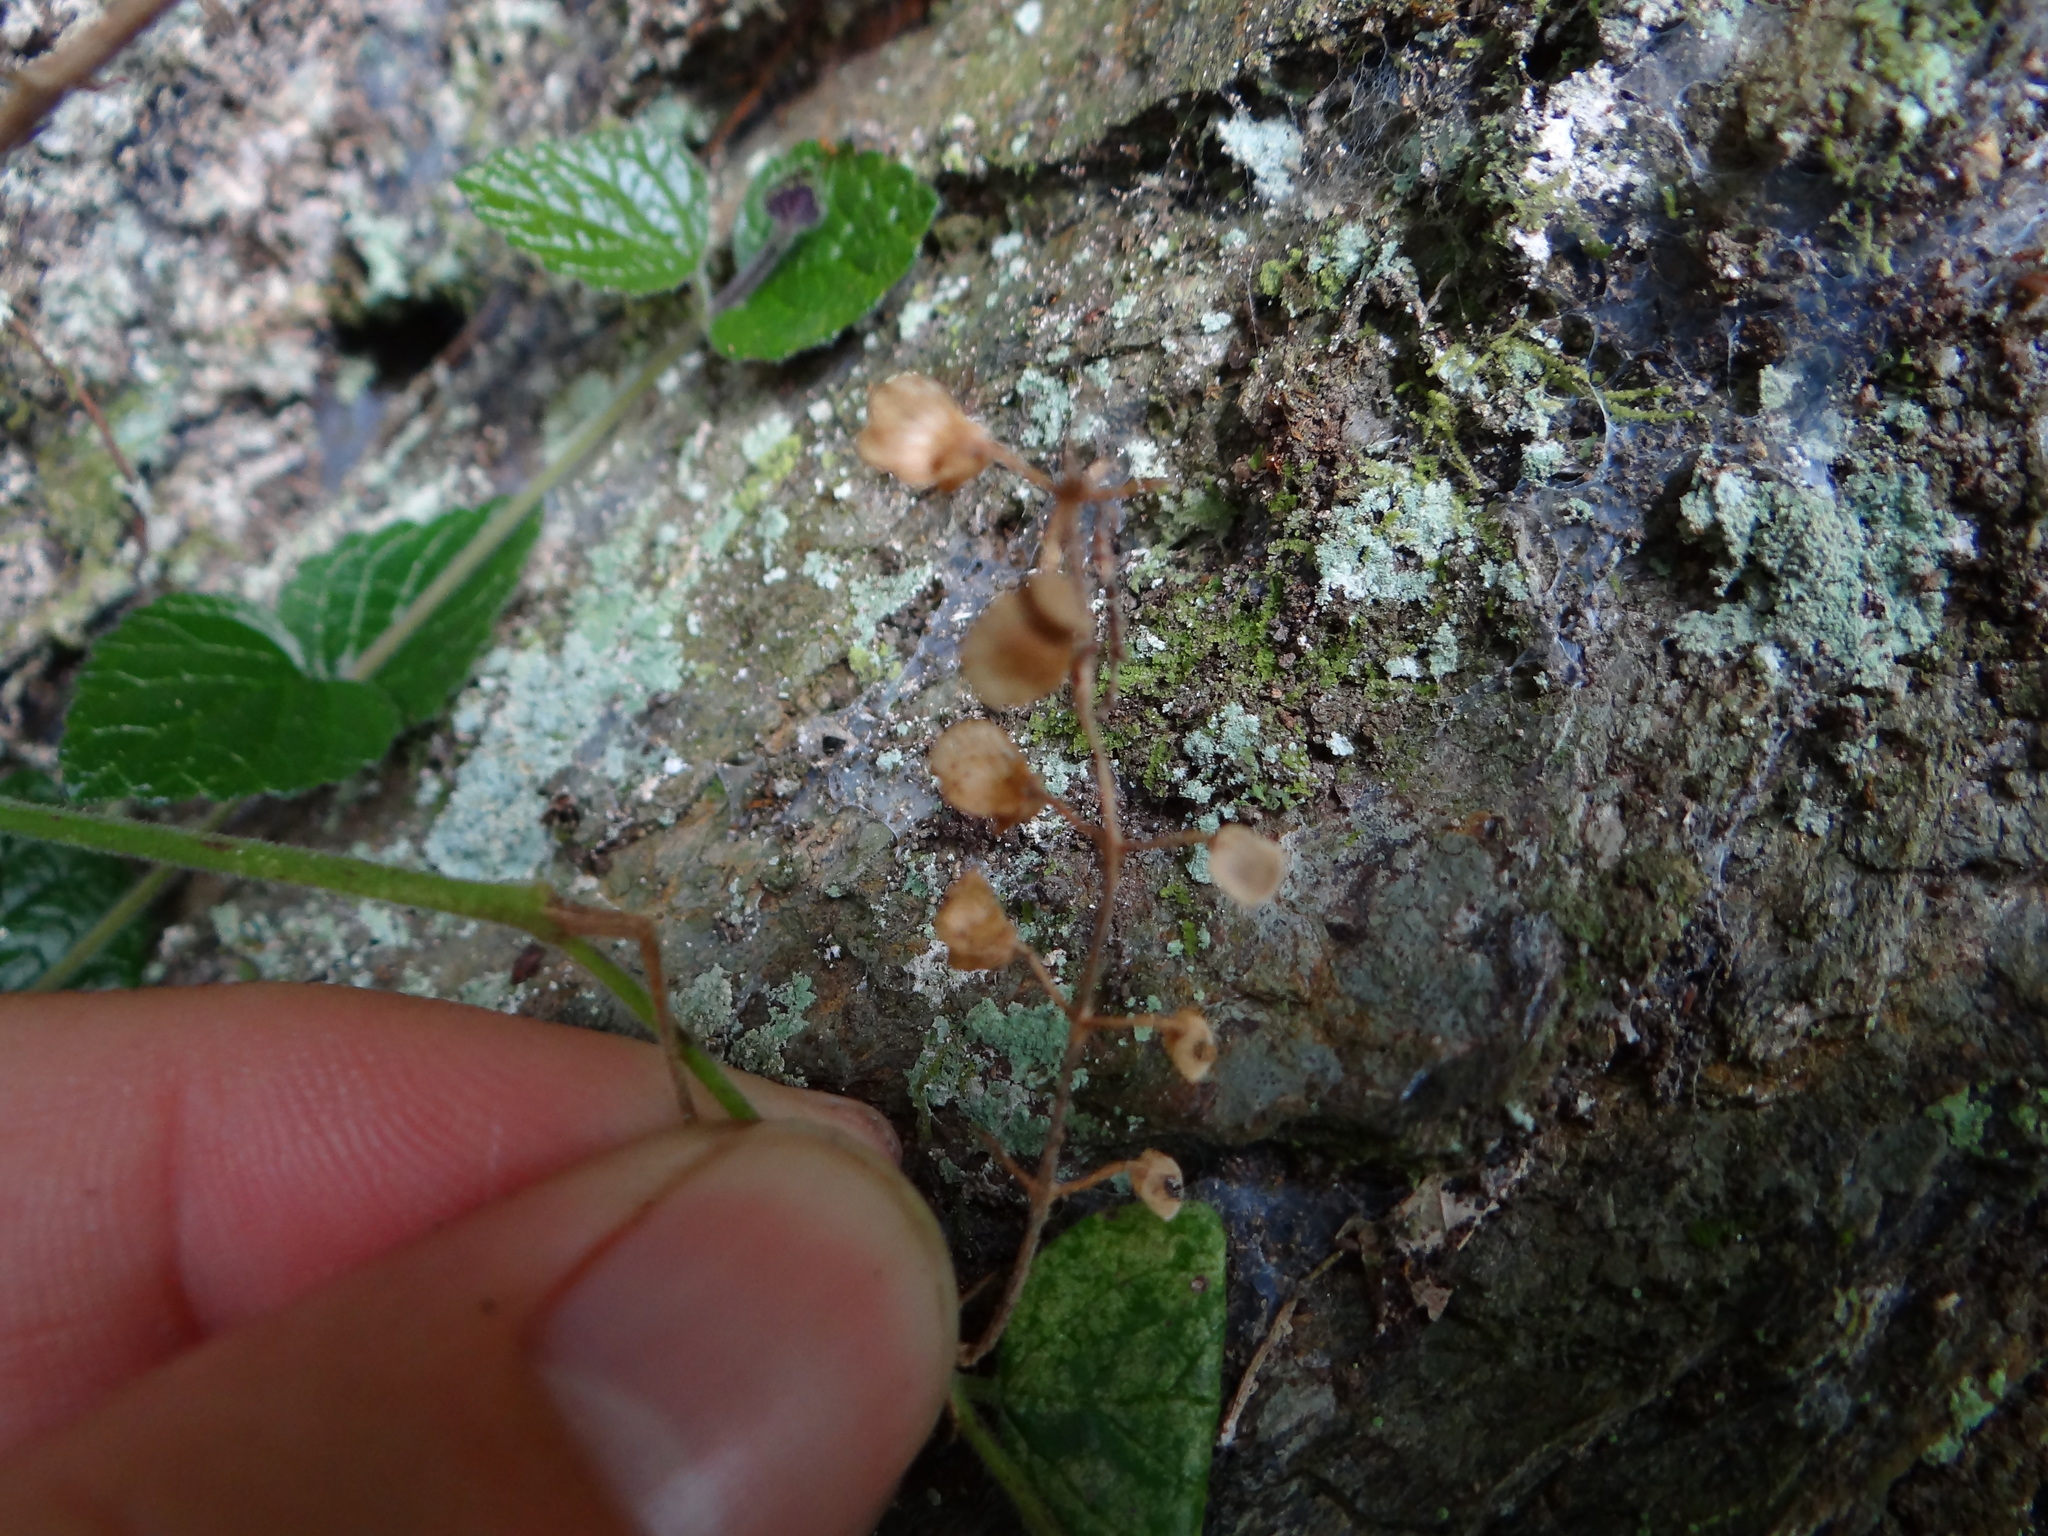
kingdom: Plantae
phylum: Tracheophyta
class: Magnoliopsida
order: Lamiales
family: Lamiaceae
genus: Scutellaria
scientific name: Scutellaria playfairii
